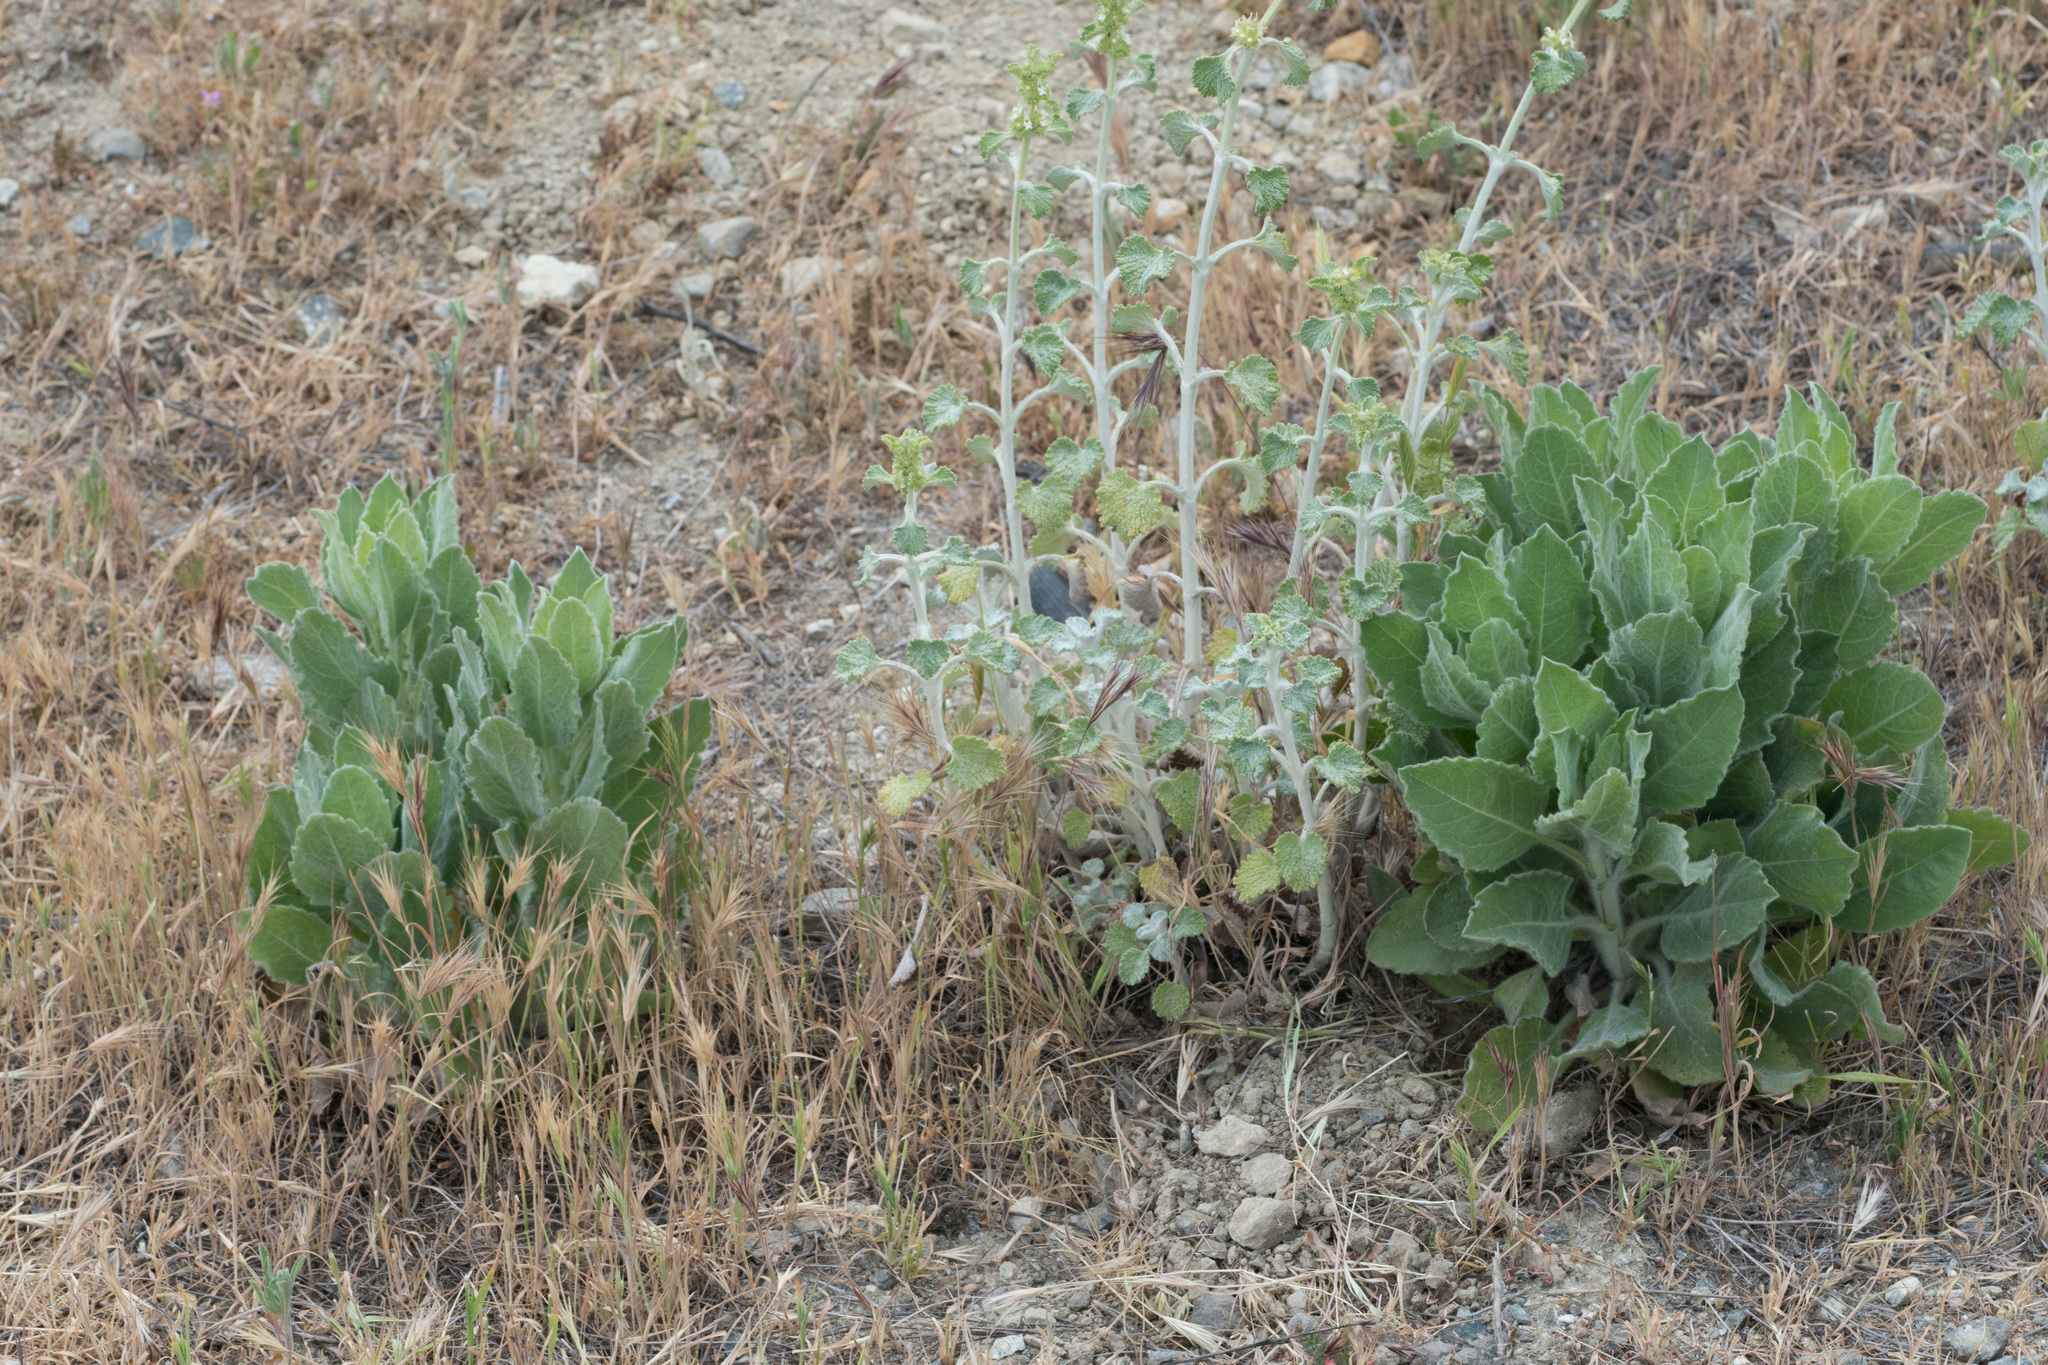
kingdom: Plantae
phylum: Tracheophyta
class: Magnoliopsida
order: Asterales
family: Asteraceae
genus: Heterotheca
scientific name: Heterotheca grandiflora
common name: Telegraphweed
